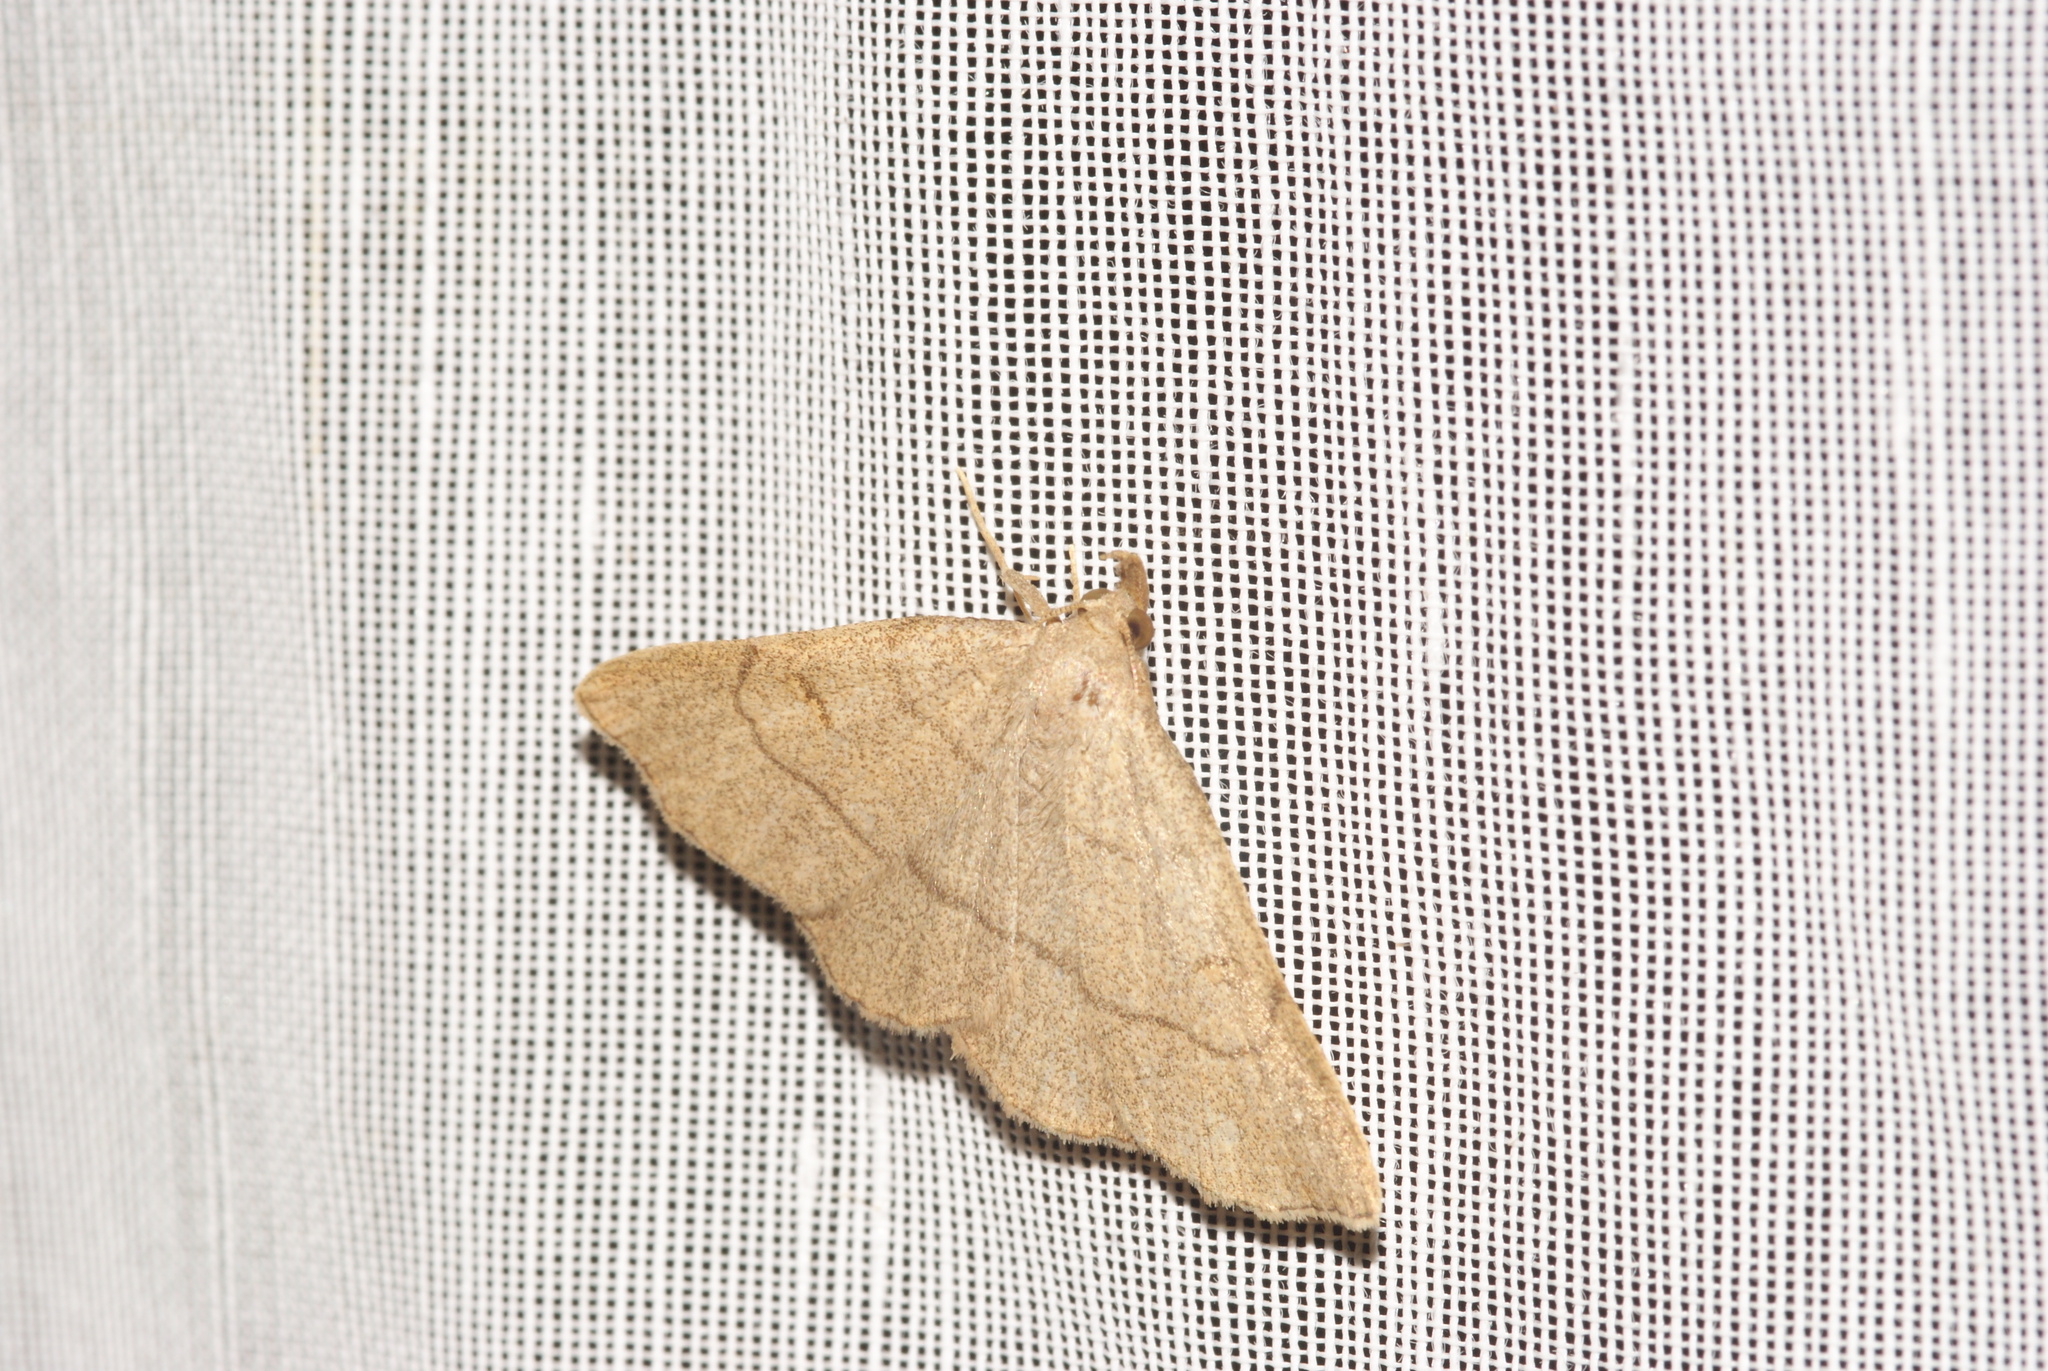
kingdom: Animalia
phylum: Arthropoda
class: Insecta
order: Lepidoptera
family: Erebidae
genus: Paracolax
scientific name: Paracolax tristalis
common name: Clay fan-foot
